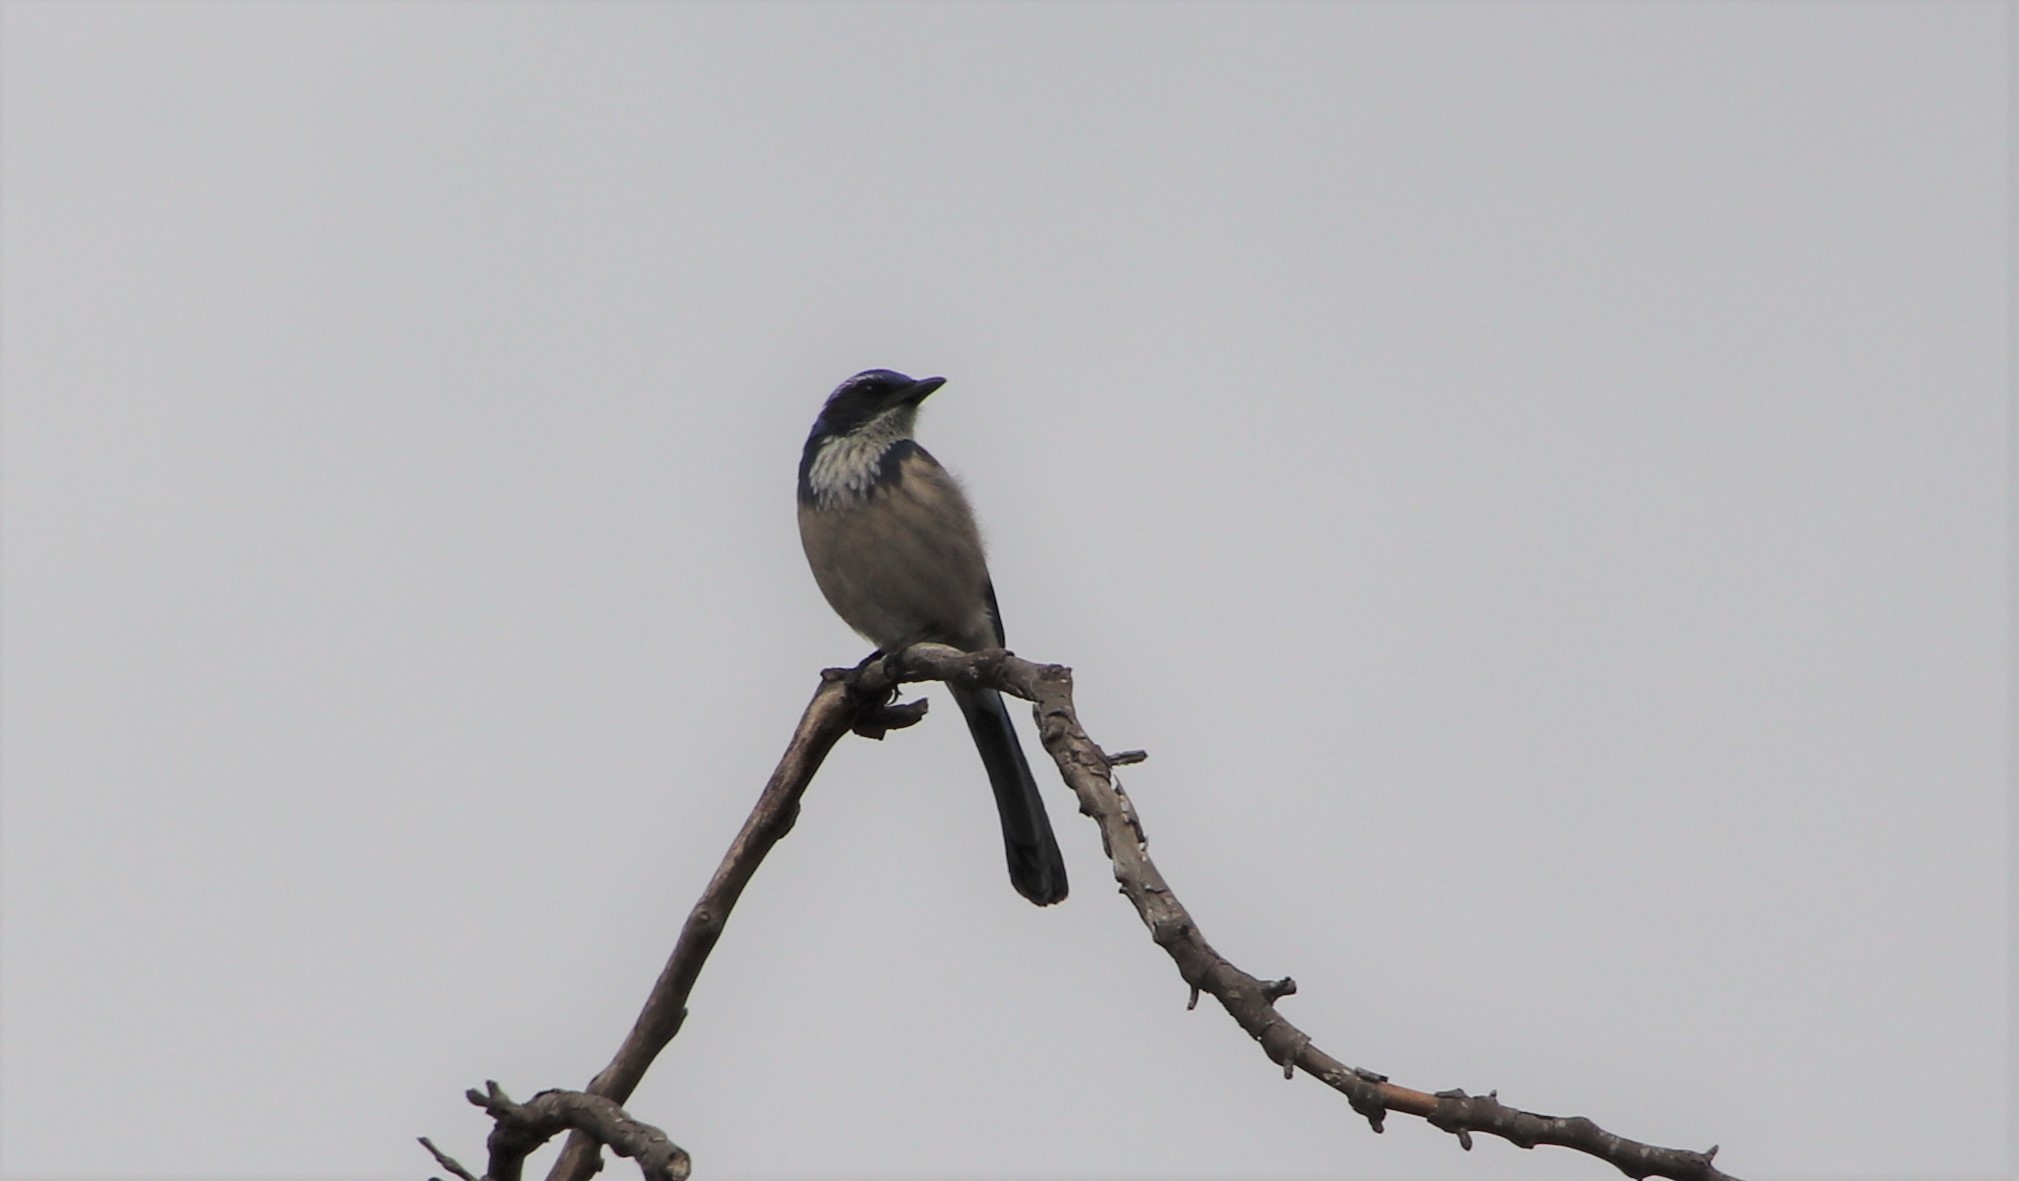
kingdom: Animalia
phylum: Chordata
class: Aves
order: Passeriformes
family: Corvidae
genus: Aphelocoma
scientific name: Aphelocoma californica
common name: California scrub-jay
